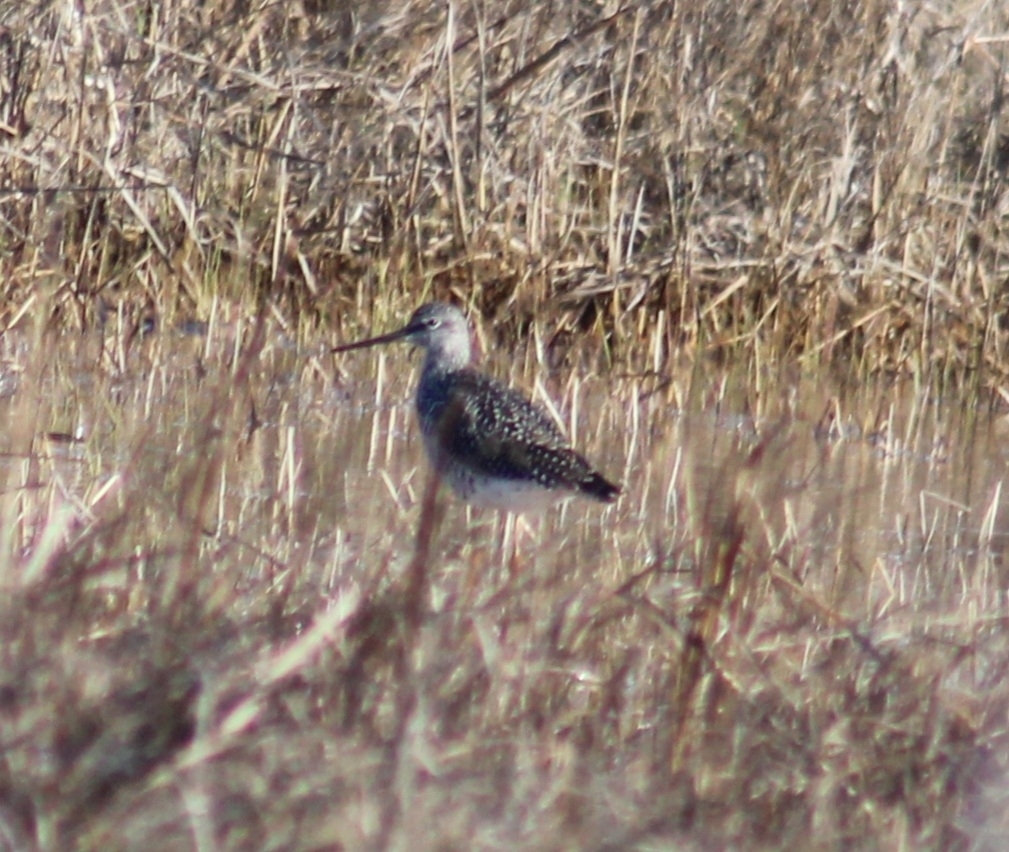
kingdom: Animalia
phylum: Chordata
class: Aves
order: Charadriiformes
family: Scolopacidae
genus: Tringa
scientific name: Tringa melanoleuca
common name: Greater yellowlegs
